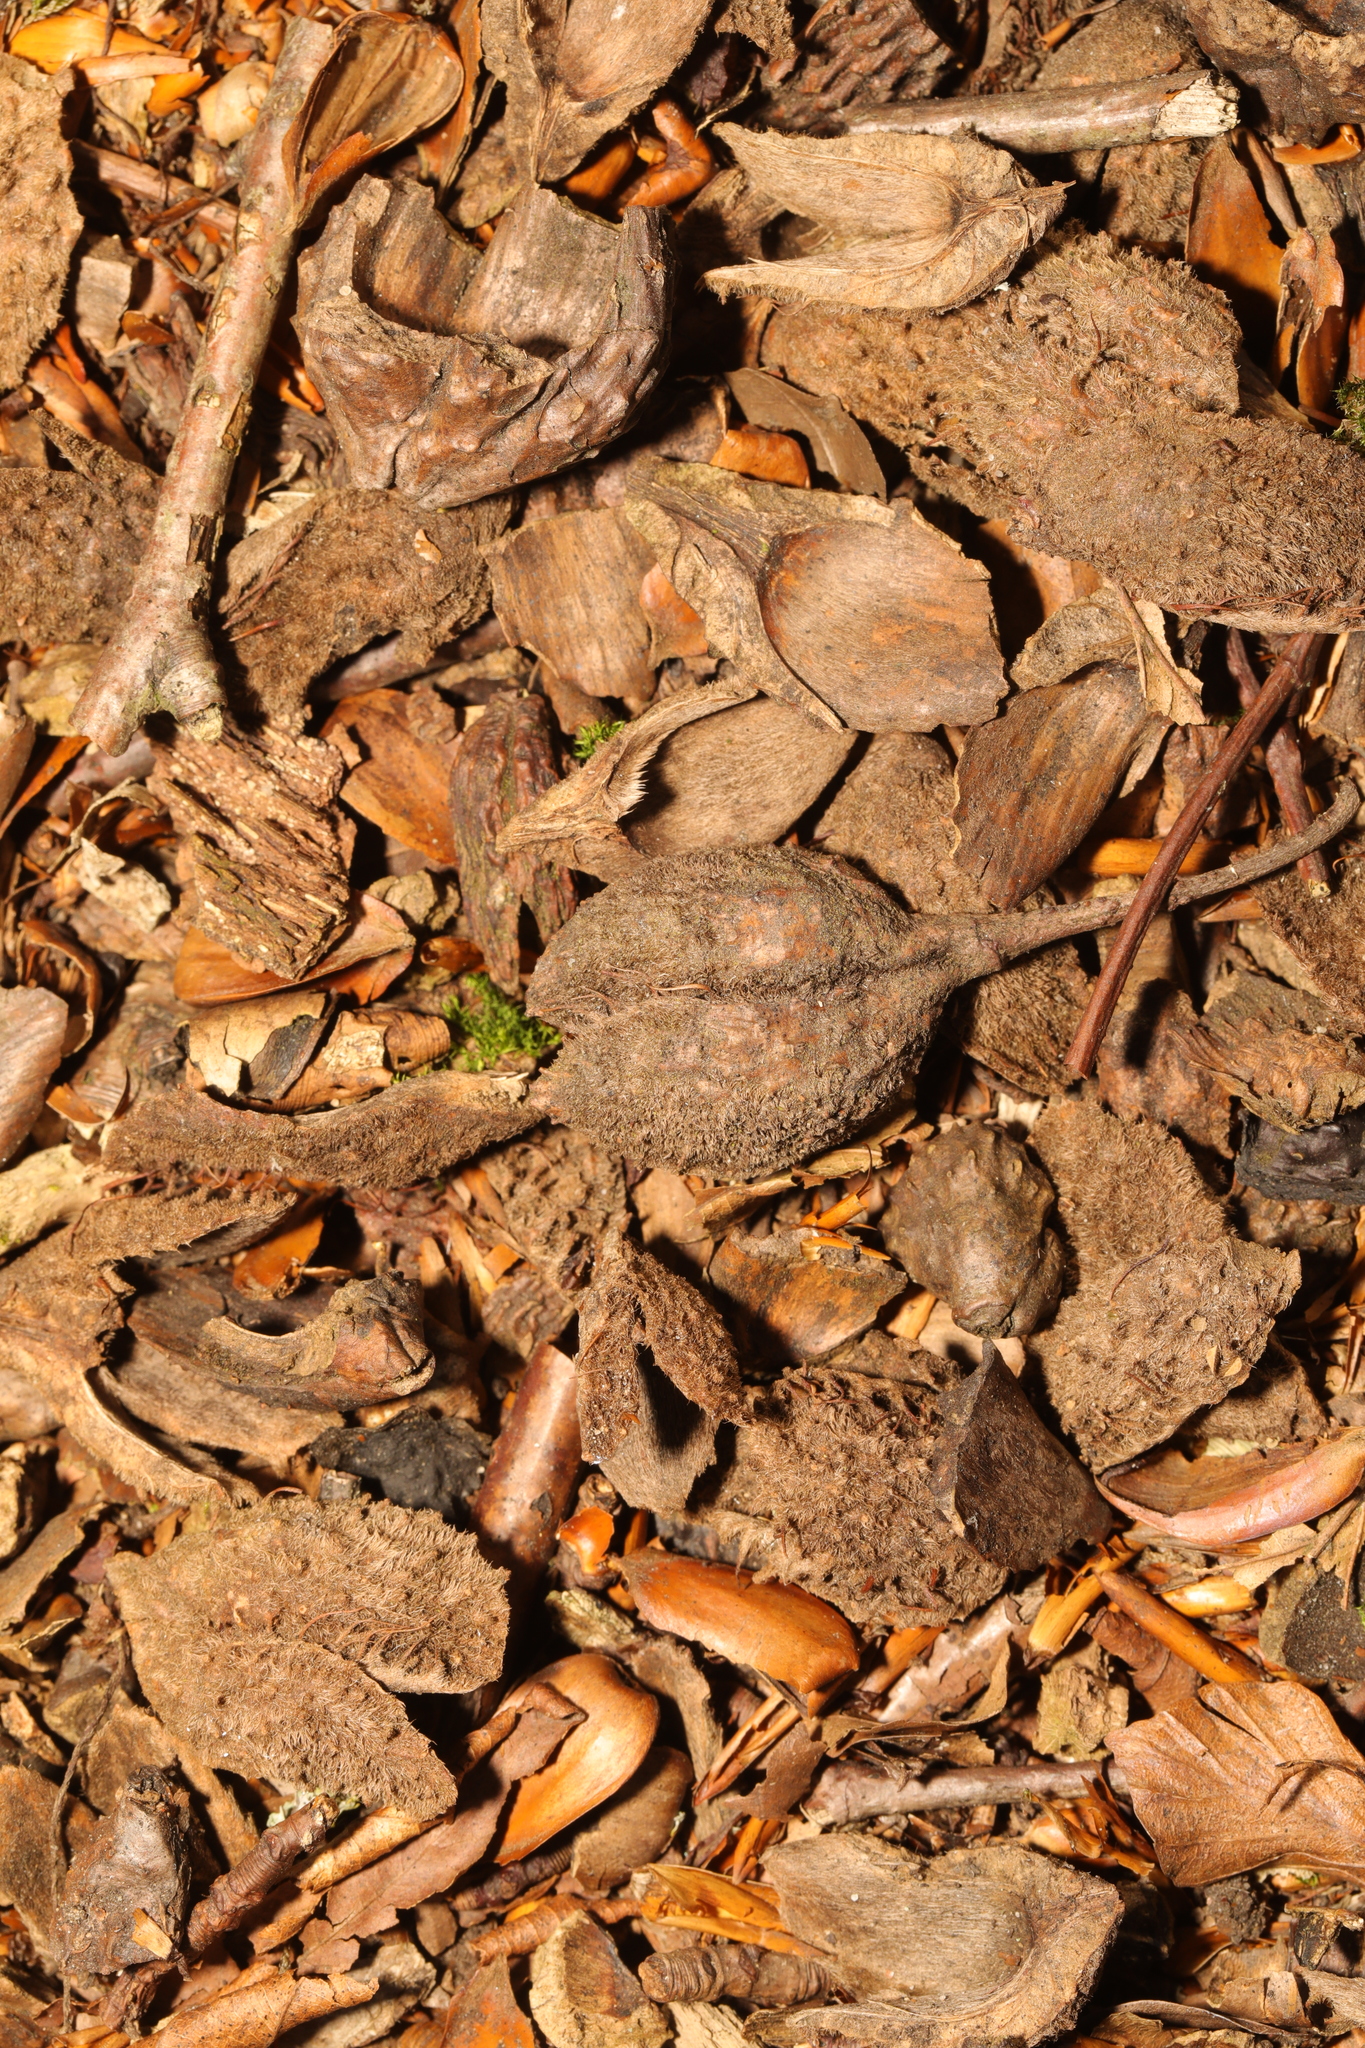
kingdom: Plantae
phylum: Tracheophyta
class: Magnoliopsida
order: Fagales
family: Fagaceae
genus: Fagus
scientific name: Fagus sylvatica
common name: Beech
